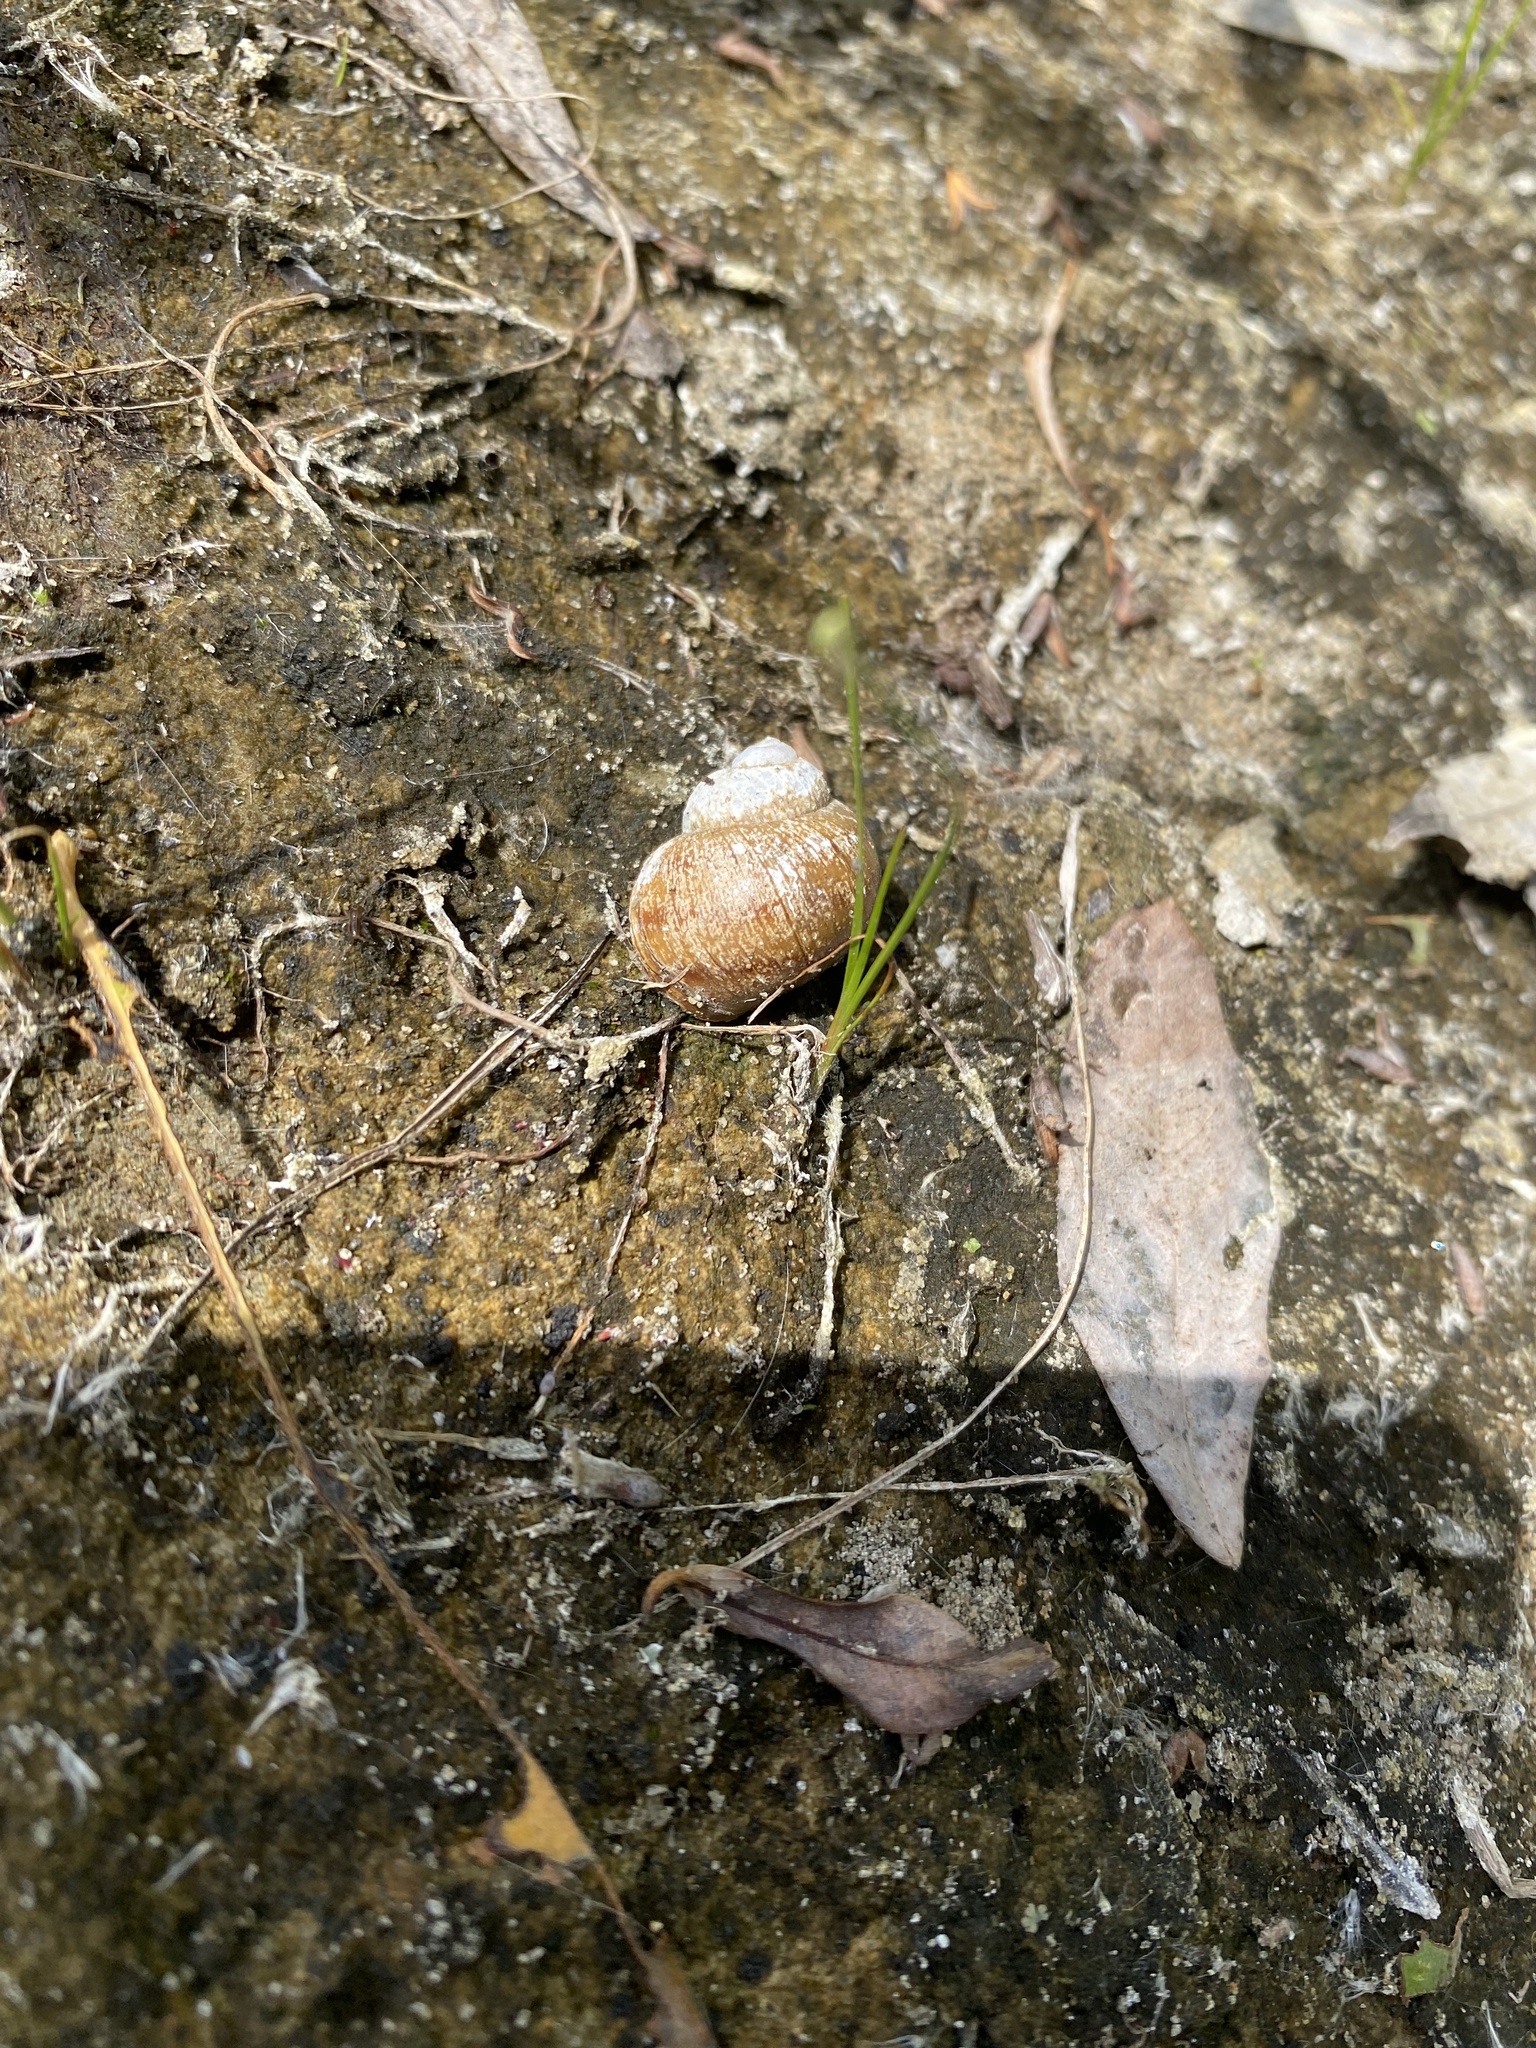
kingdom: Animalia
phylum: Mollusca
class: Gastropoda
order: Architaenioglossa
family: Viviparidae
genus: Viviparus
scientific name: Viviparus
